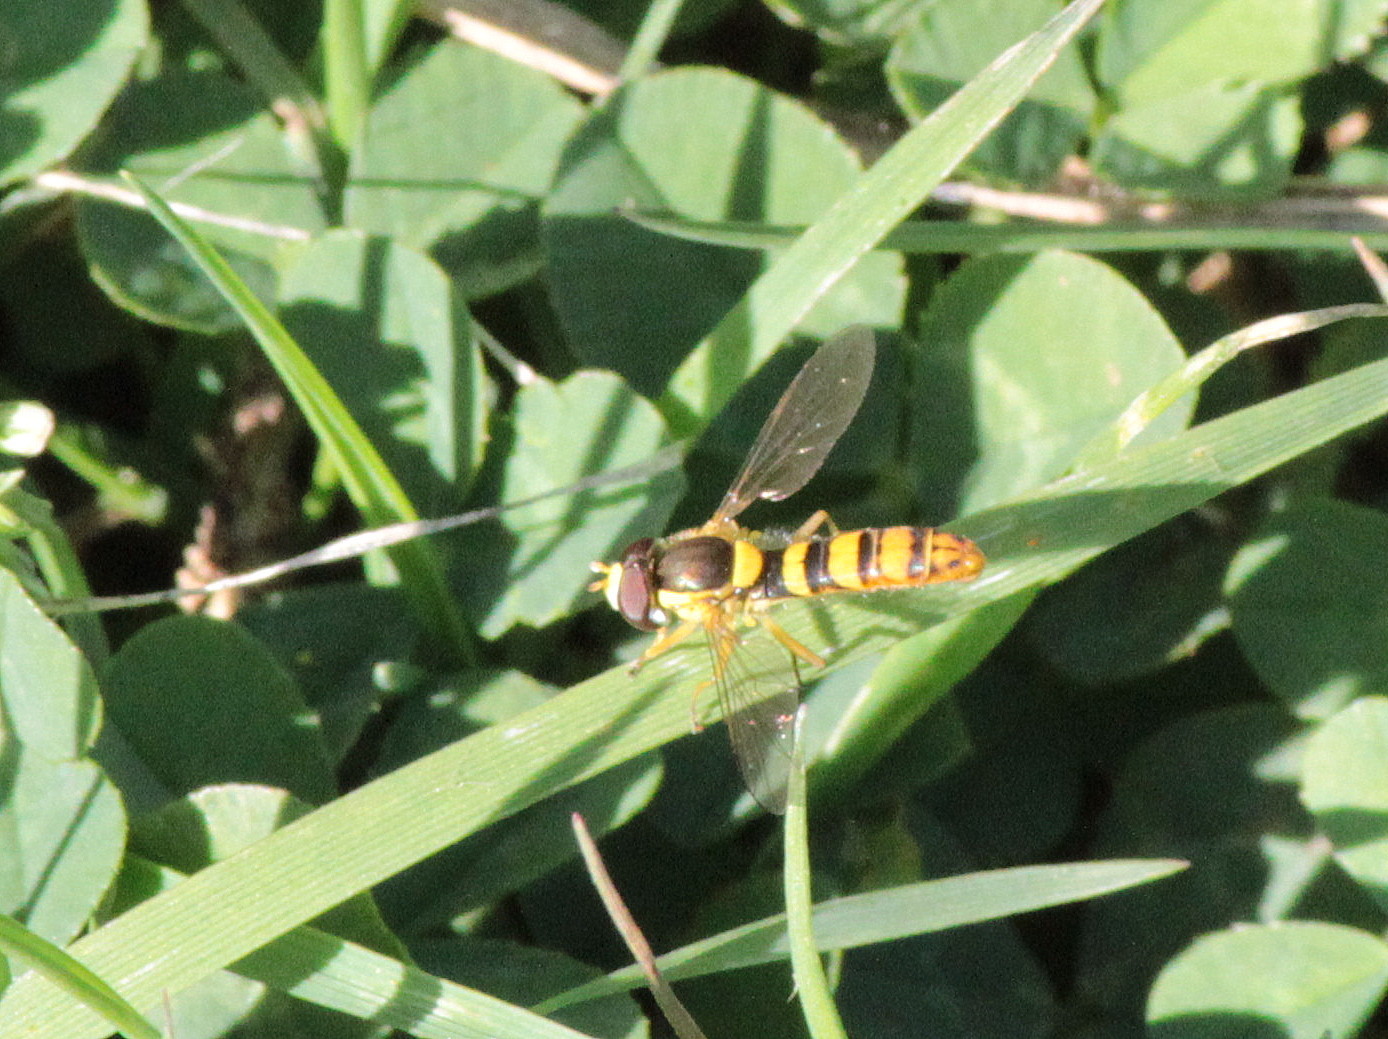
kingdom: Animalia
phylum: Arthropoda
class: Insecta
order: Diptera
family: Syrphidae
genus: Sphaerophoria
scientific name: Sphaerophoria philantha
